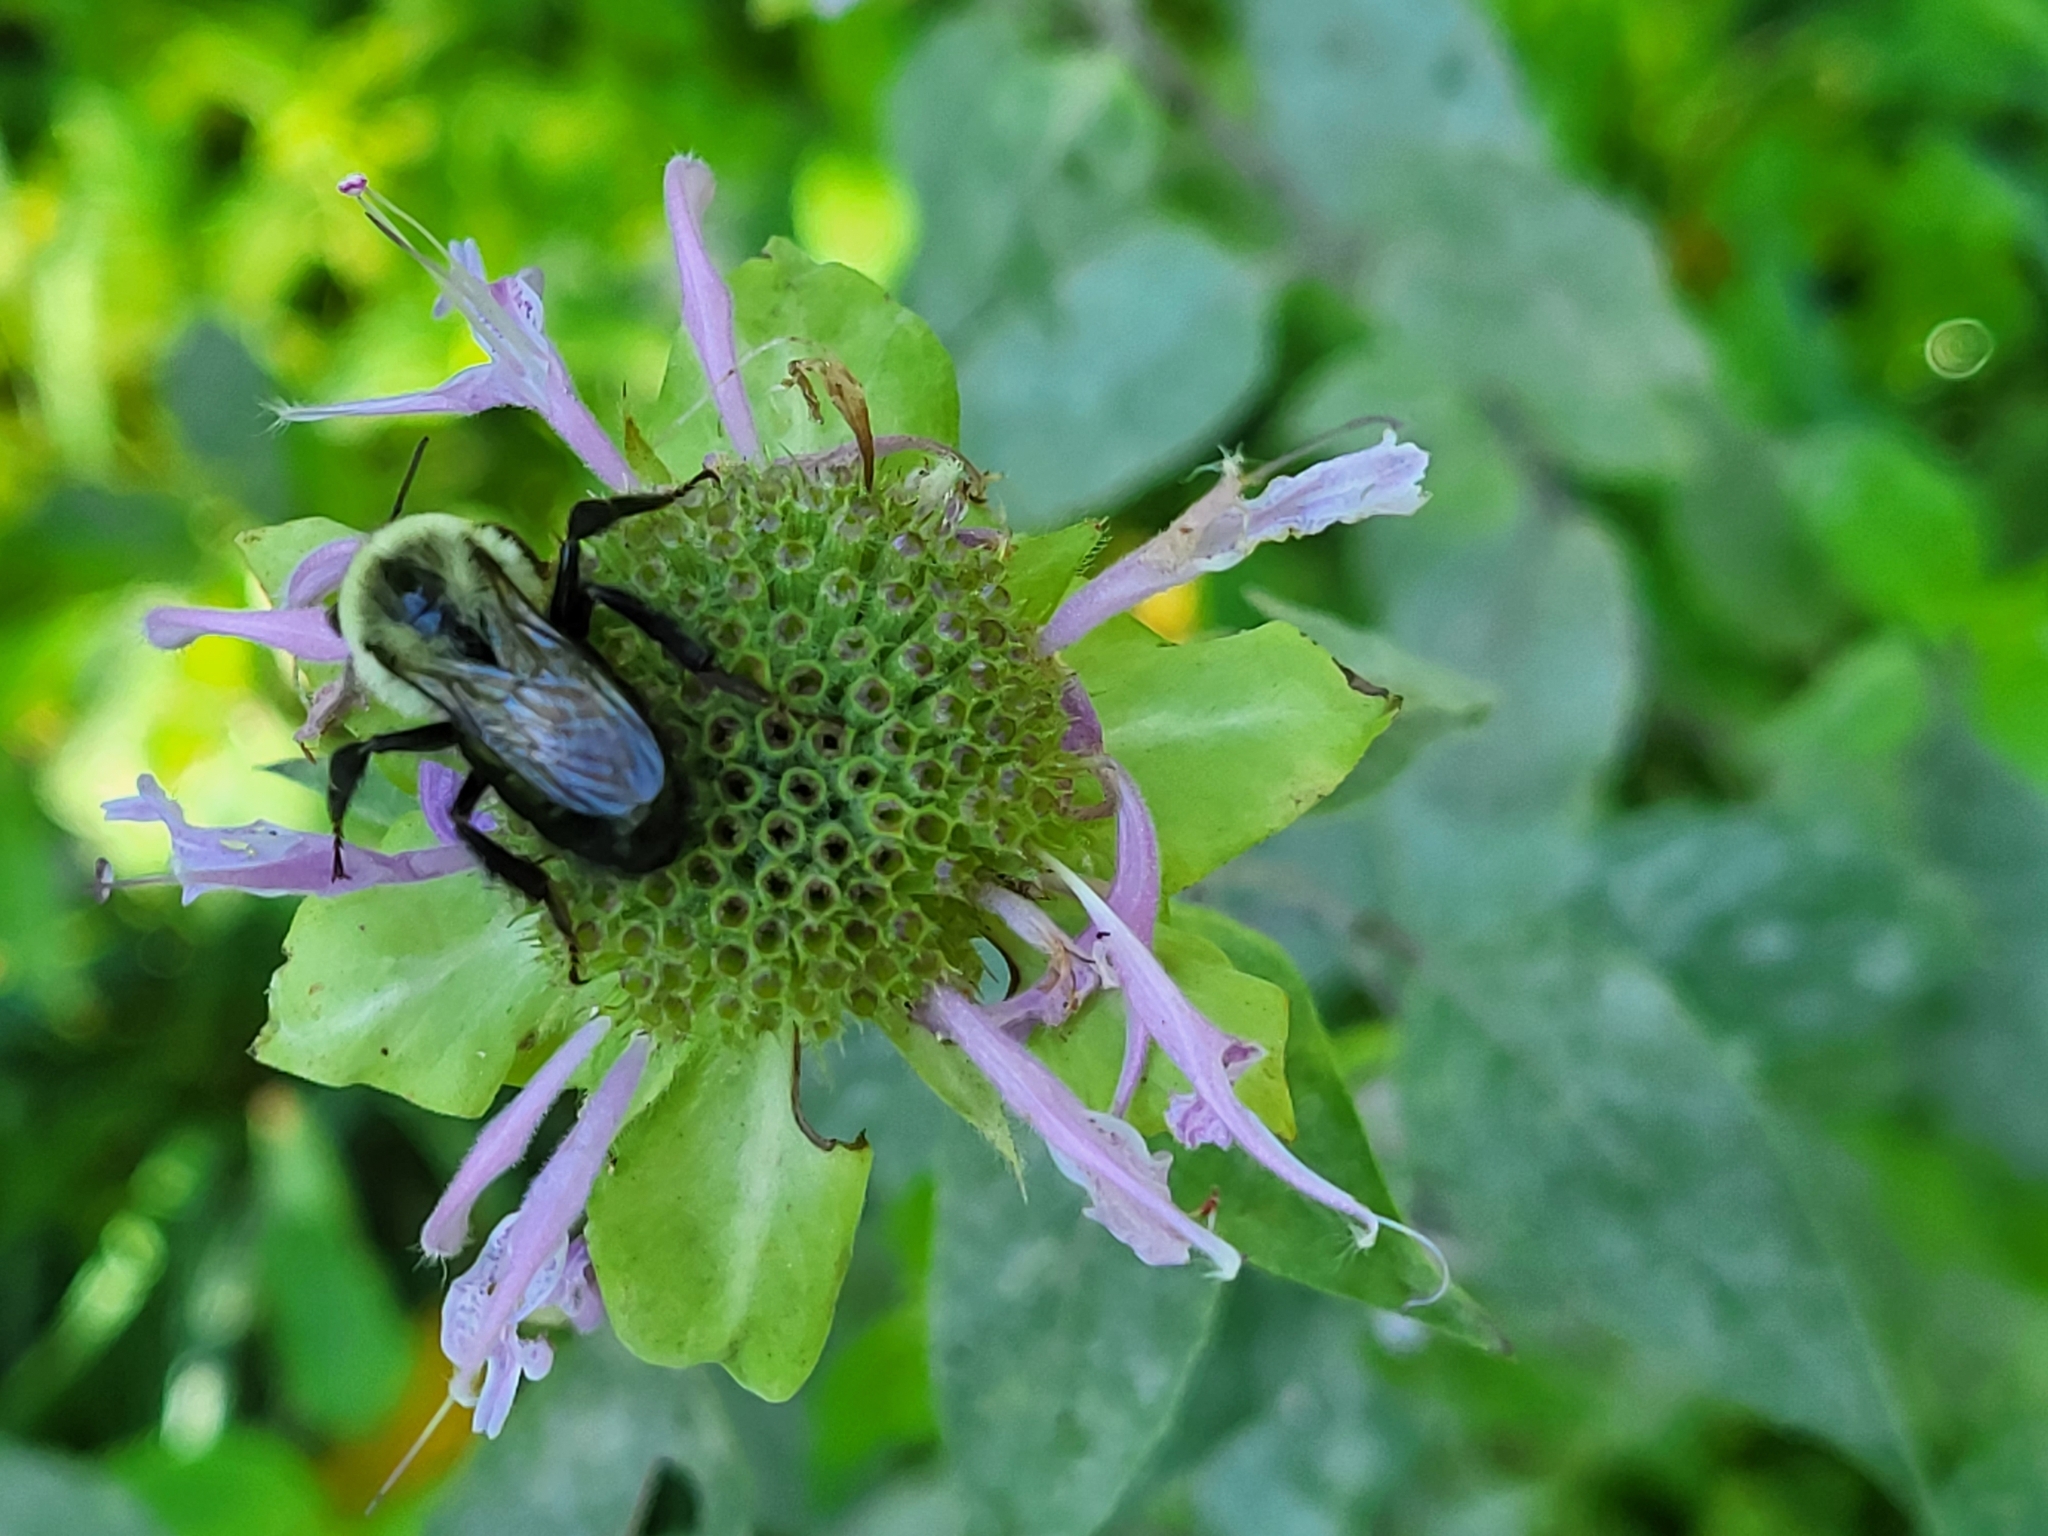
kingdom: Animalia
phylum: Arthropoda
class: Insecta
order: Hymenoptera
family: Apidae
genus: Bombus
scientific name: Bombus impatiens
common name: Common eastern bumble bee
